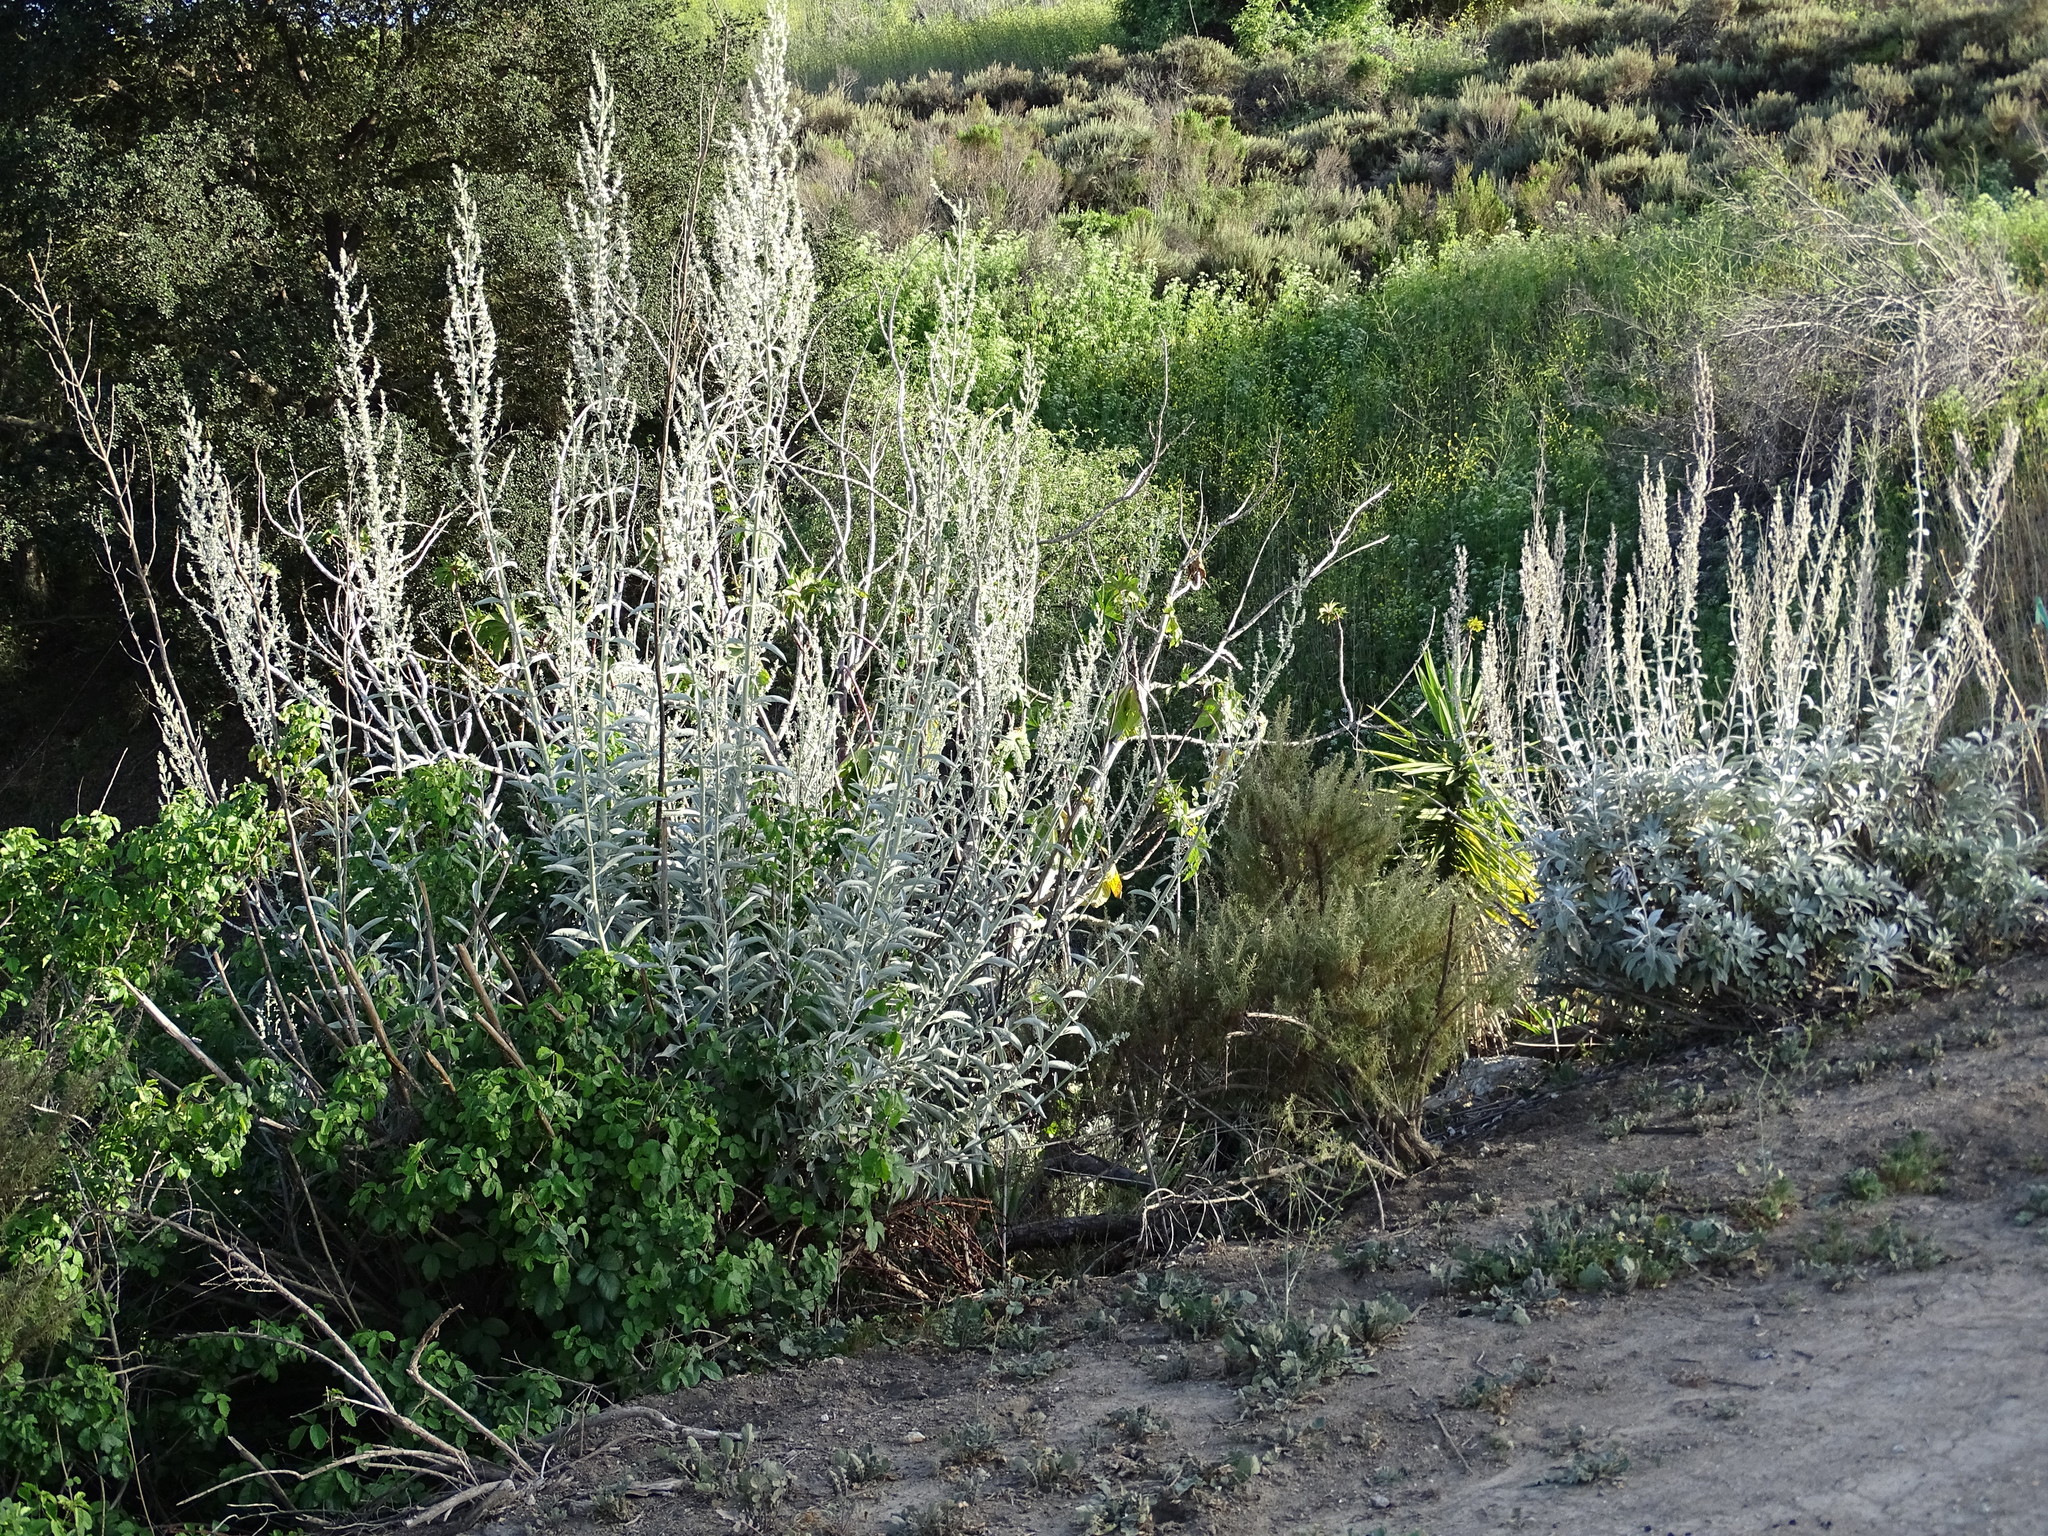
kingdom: Plantae
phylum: Tracheophyta
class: Magnoliopsida
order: Lamiales
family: Lamiaceae
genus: Salvia
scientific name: Salvia apiana
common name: White sage
